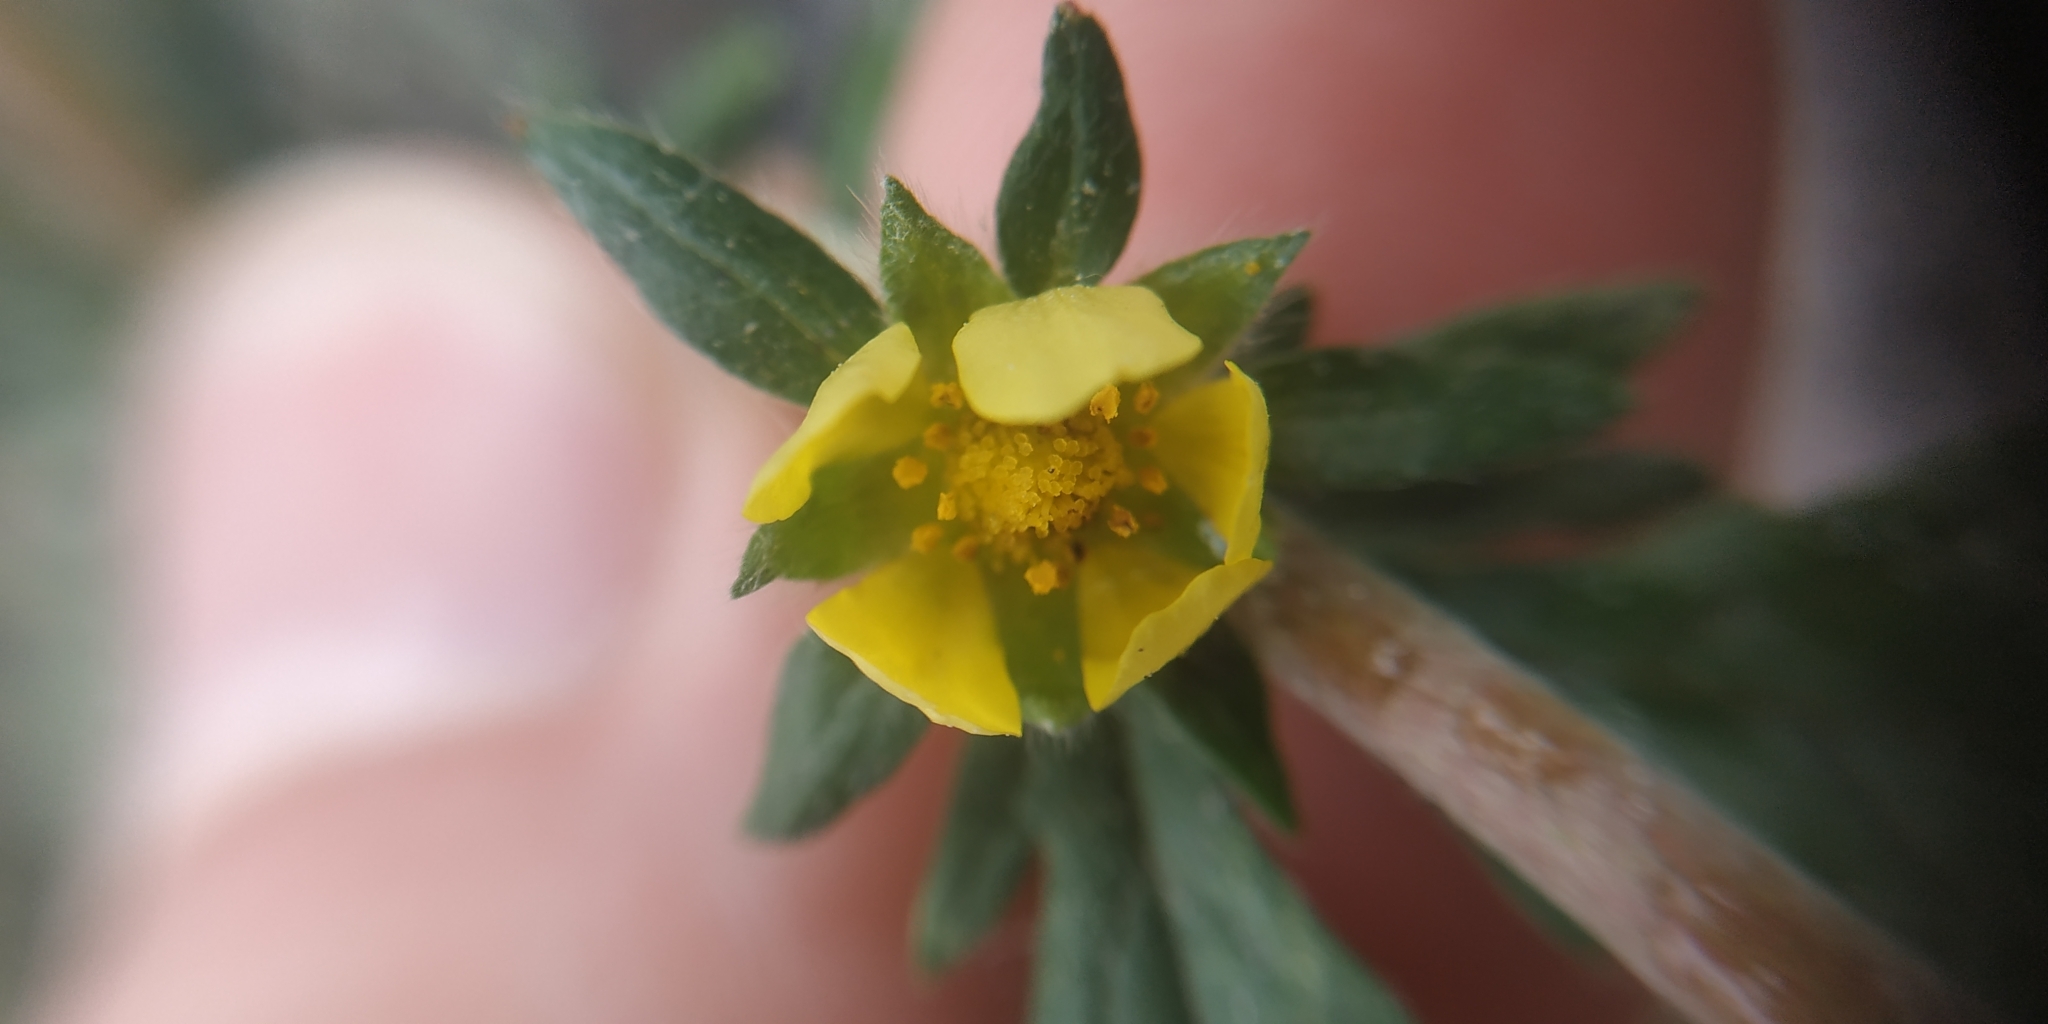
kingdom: Plantae
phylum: Tracheophyta
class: Magnoliopsida
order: Rosales
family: Rosaceae
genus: Potentilla
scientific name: Potentilla tobolensis
